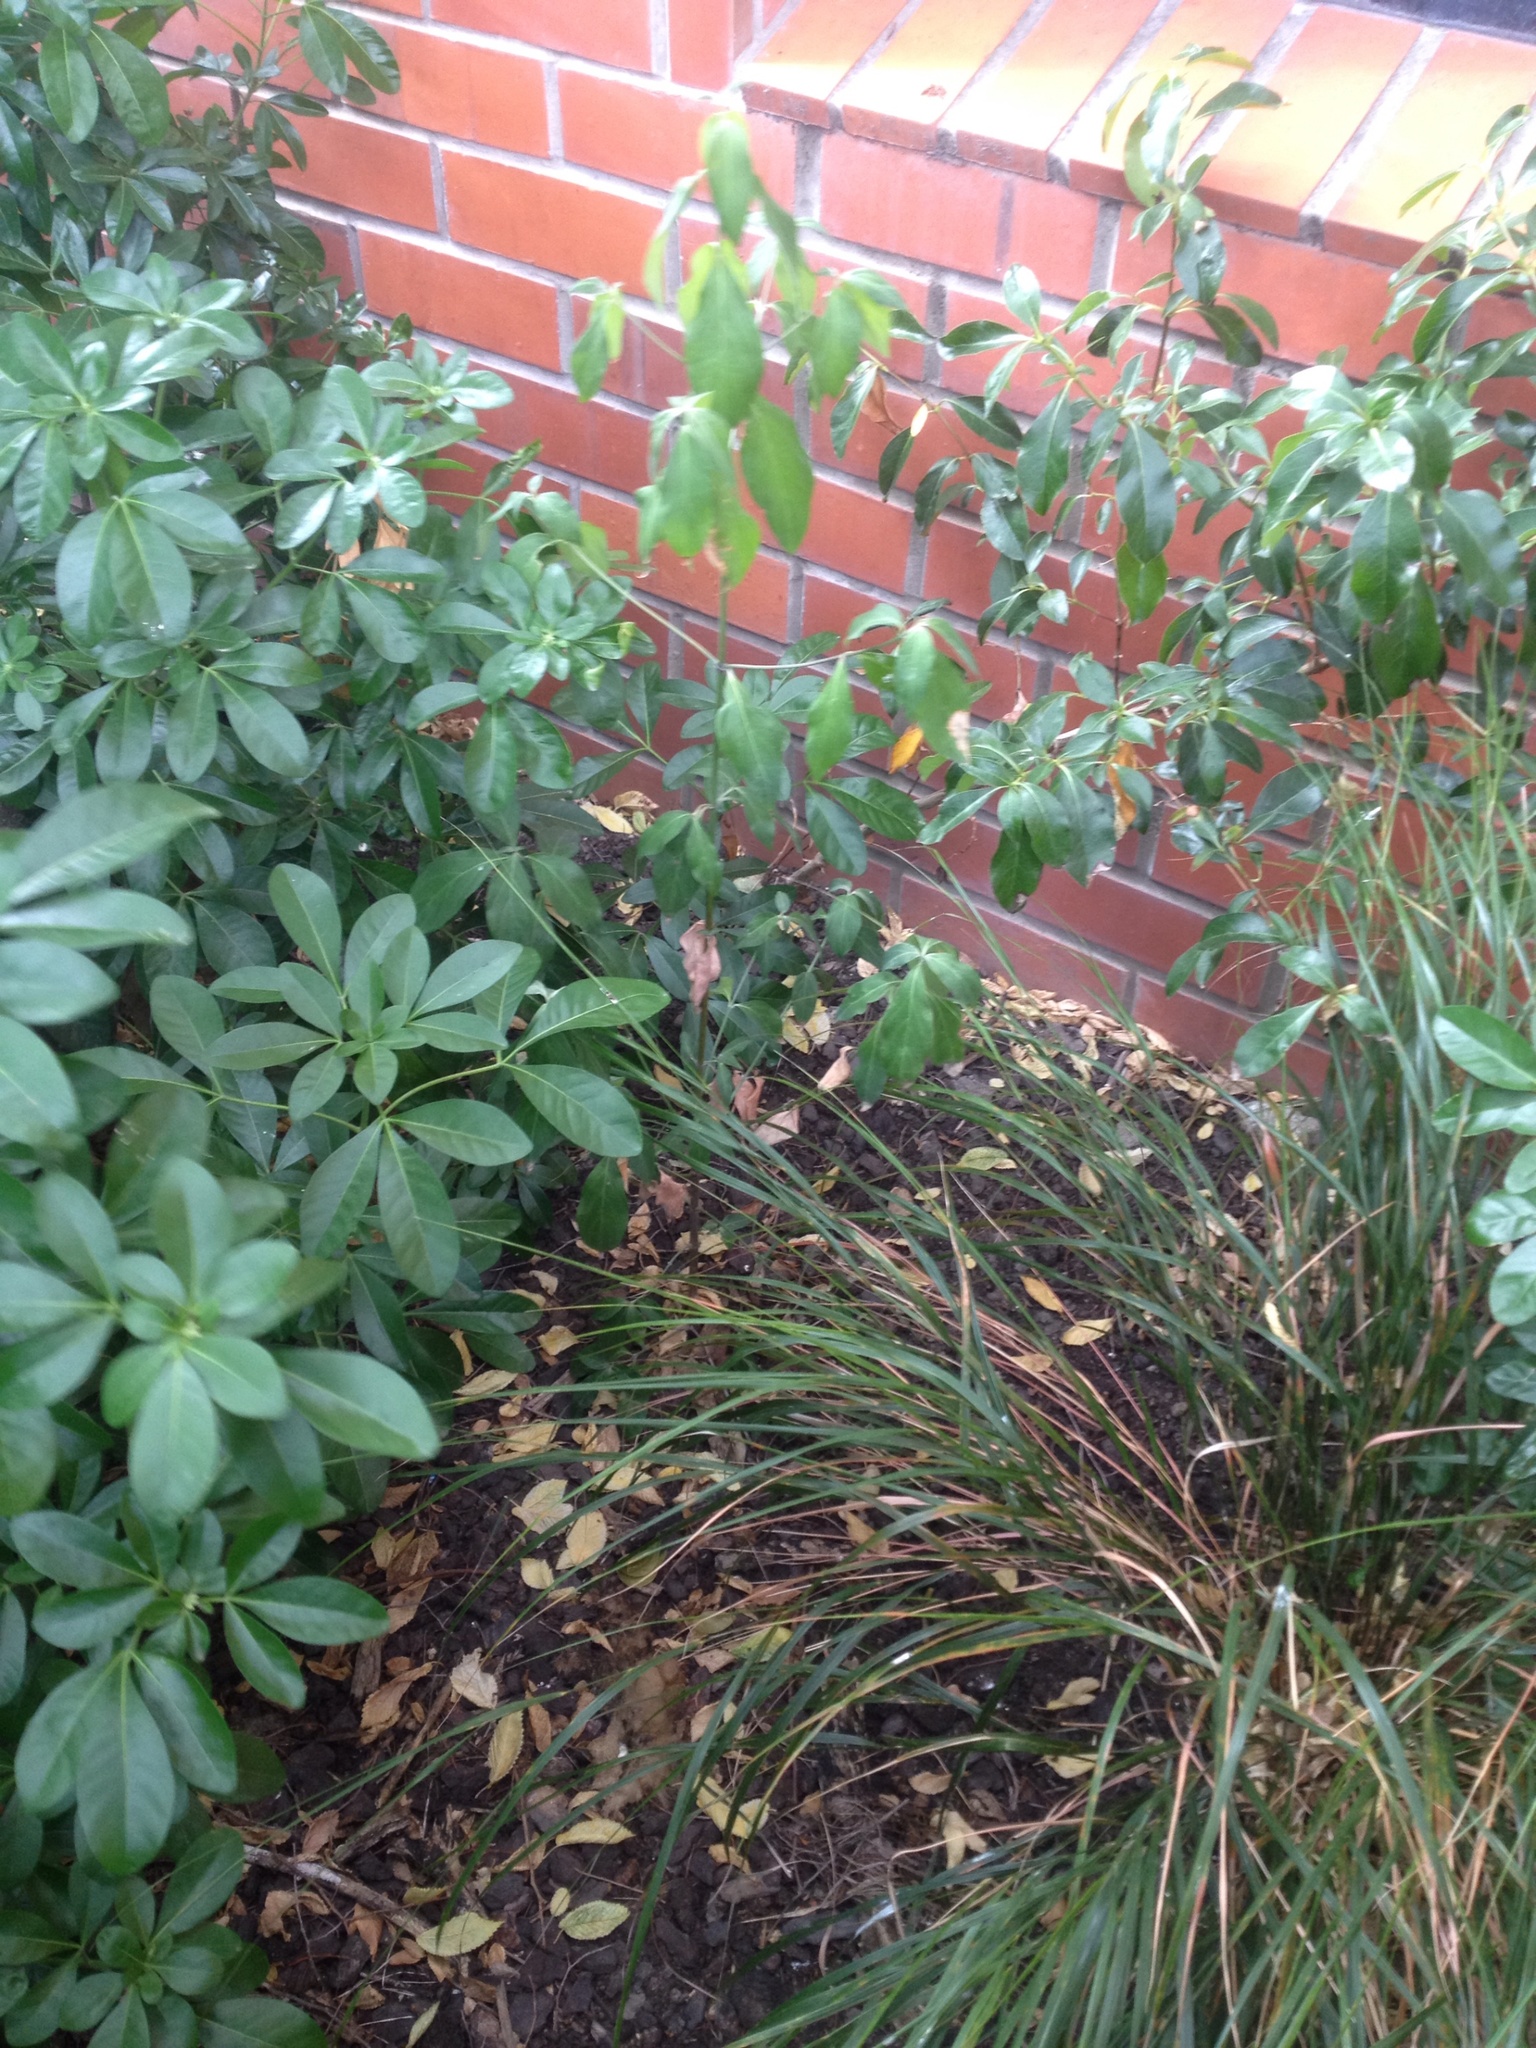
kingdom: Plantae
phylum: Tracheophyta
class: Magnoliopsida
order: Cornales
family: Cornaceae
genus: Cornus
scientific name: Cornus capitata
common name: Bentham's cornel
